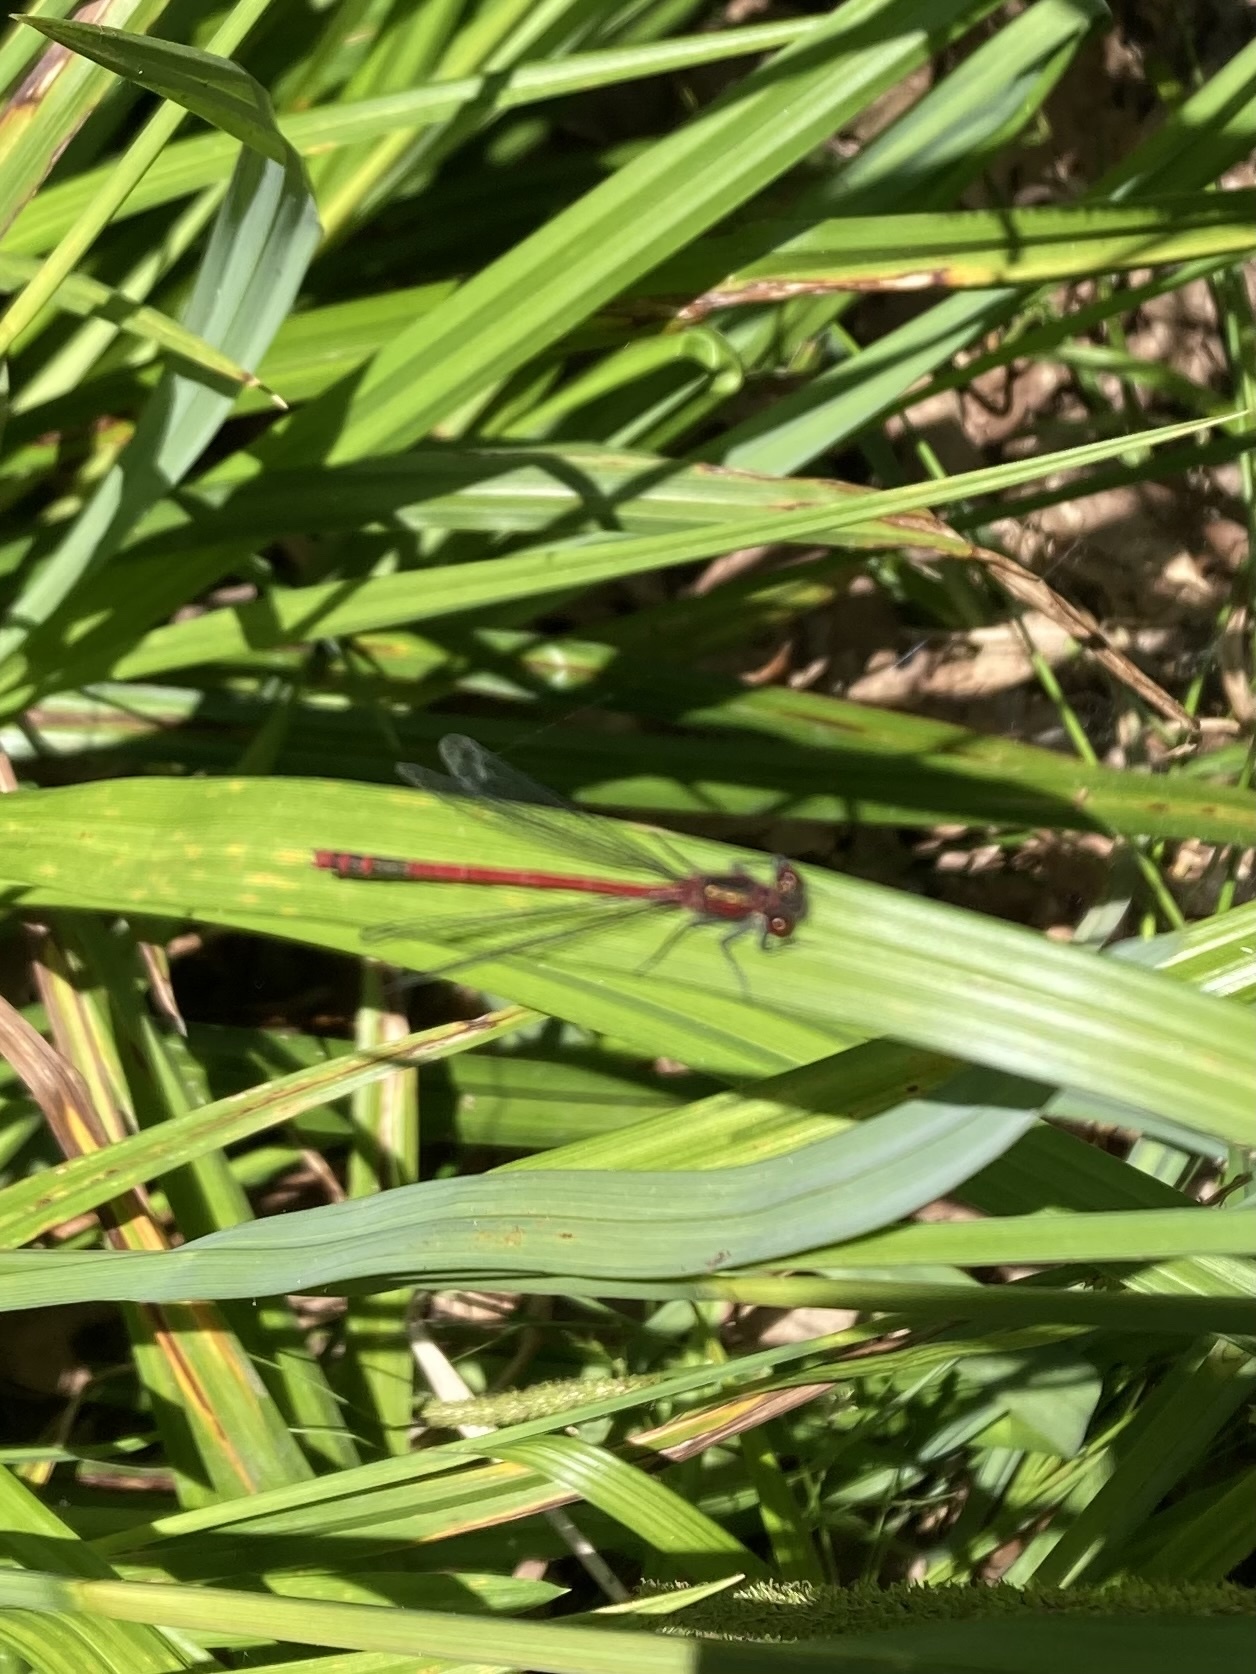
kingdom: Animalia
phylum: Arthropoda
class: Insecta
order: Odonata
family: Coenagrionidae
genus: Pyrrhosoma
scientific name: Pyrrhosoma nymphula
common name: Large red damsel
